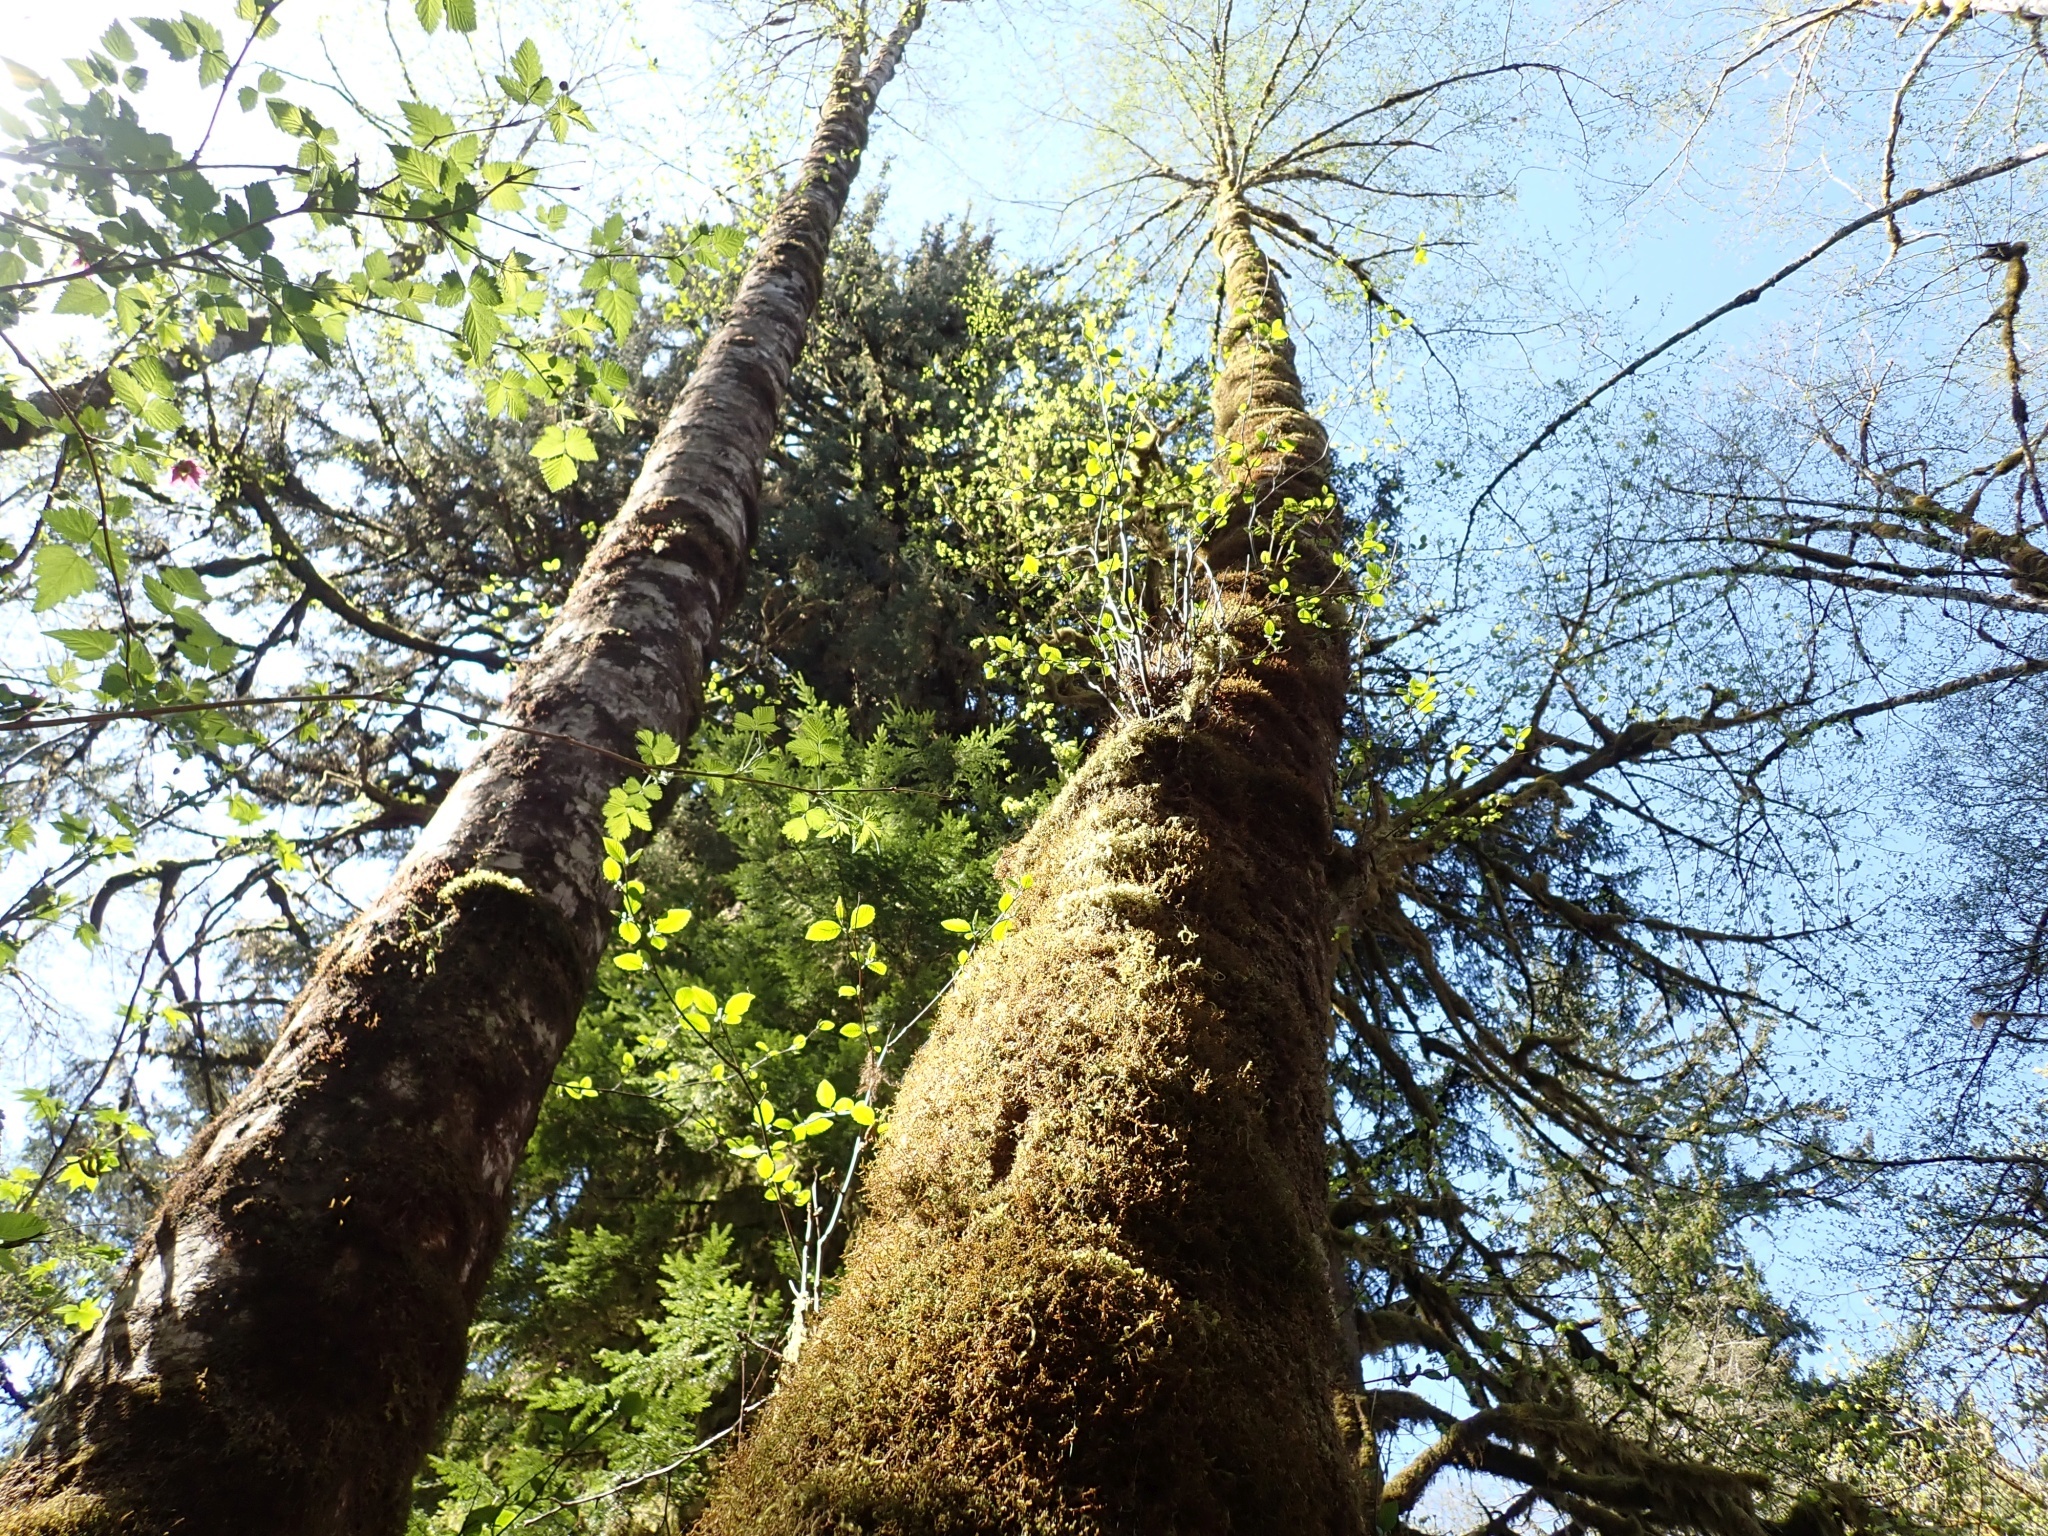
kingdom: Plantae
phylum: Tracheophyta
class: Magnoliopsida
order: Fagales
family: Betulaceae
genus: Alnus
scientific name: Alnus rubra
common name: Red alder
